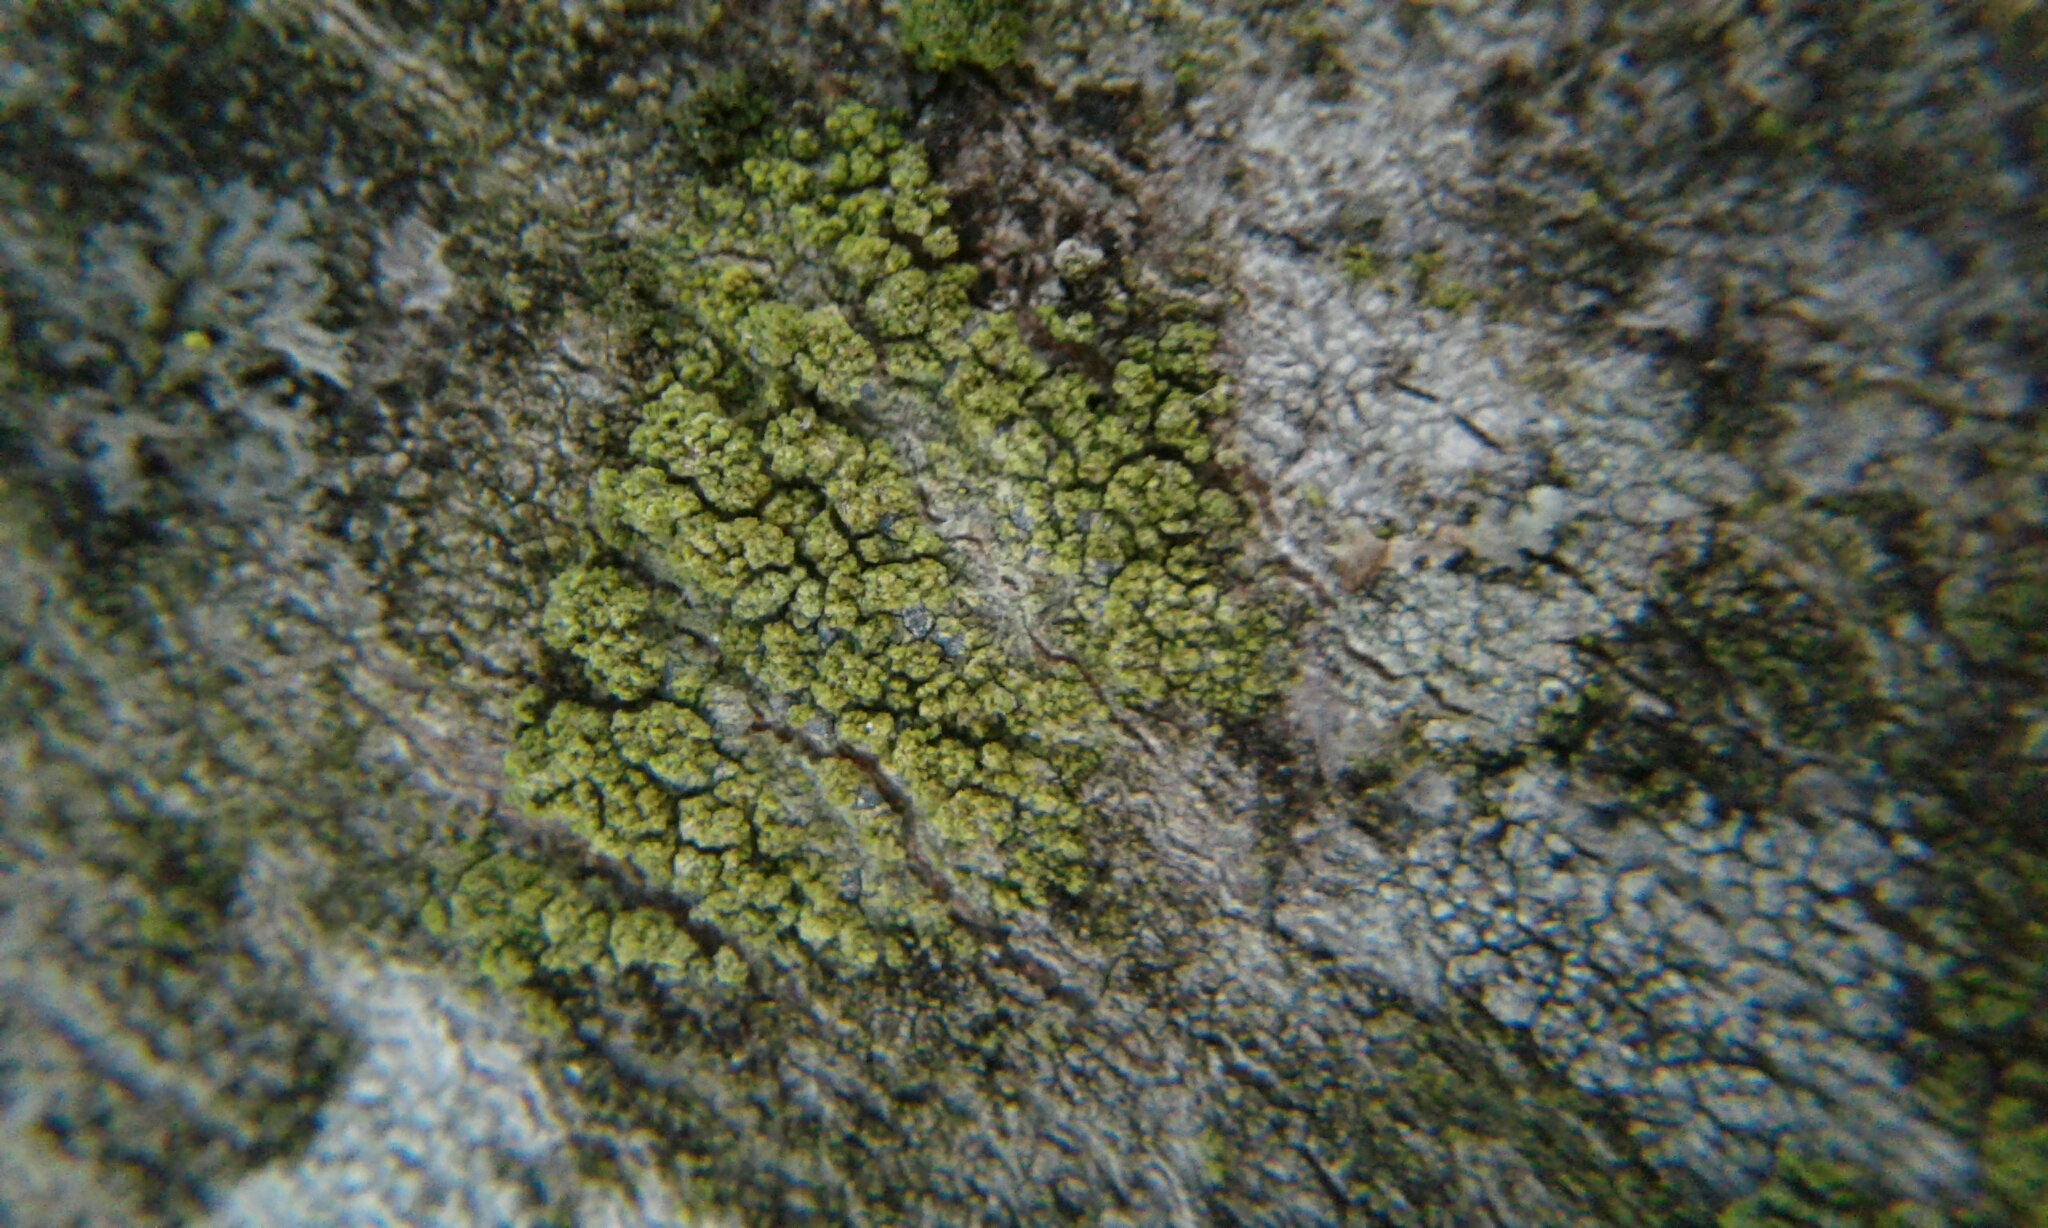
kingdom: Fungi
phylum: Ascomycota
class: Candelariomycetes
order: Candelariales
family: Candelariaceae
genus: Candelariella
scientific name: Candelariella efflorescens
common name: Powdery goldspeck
